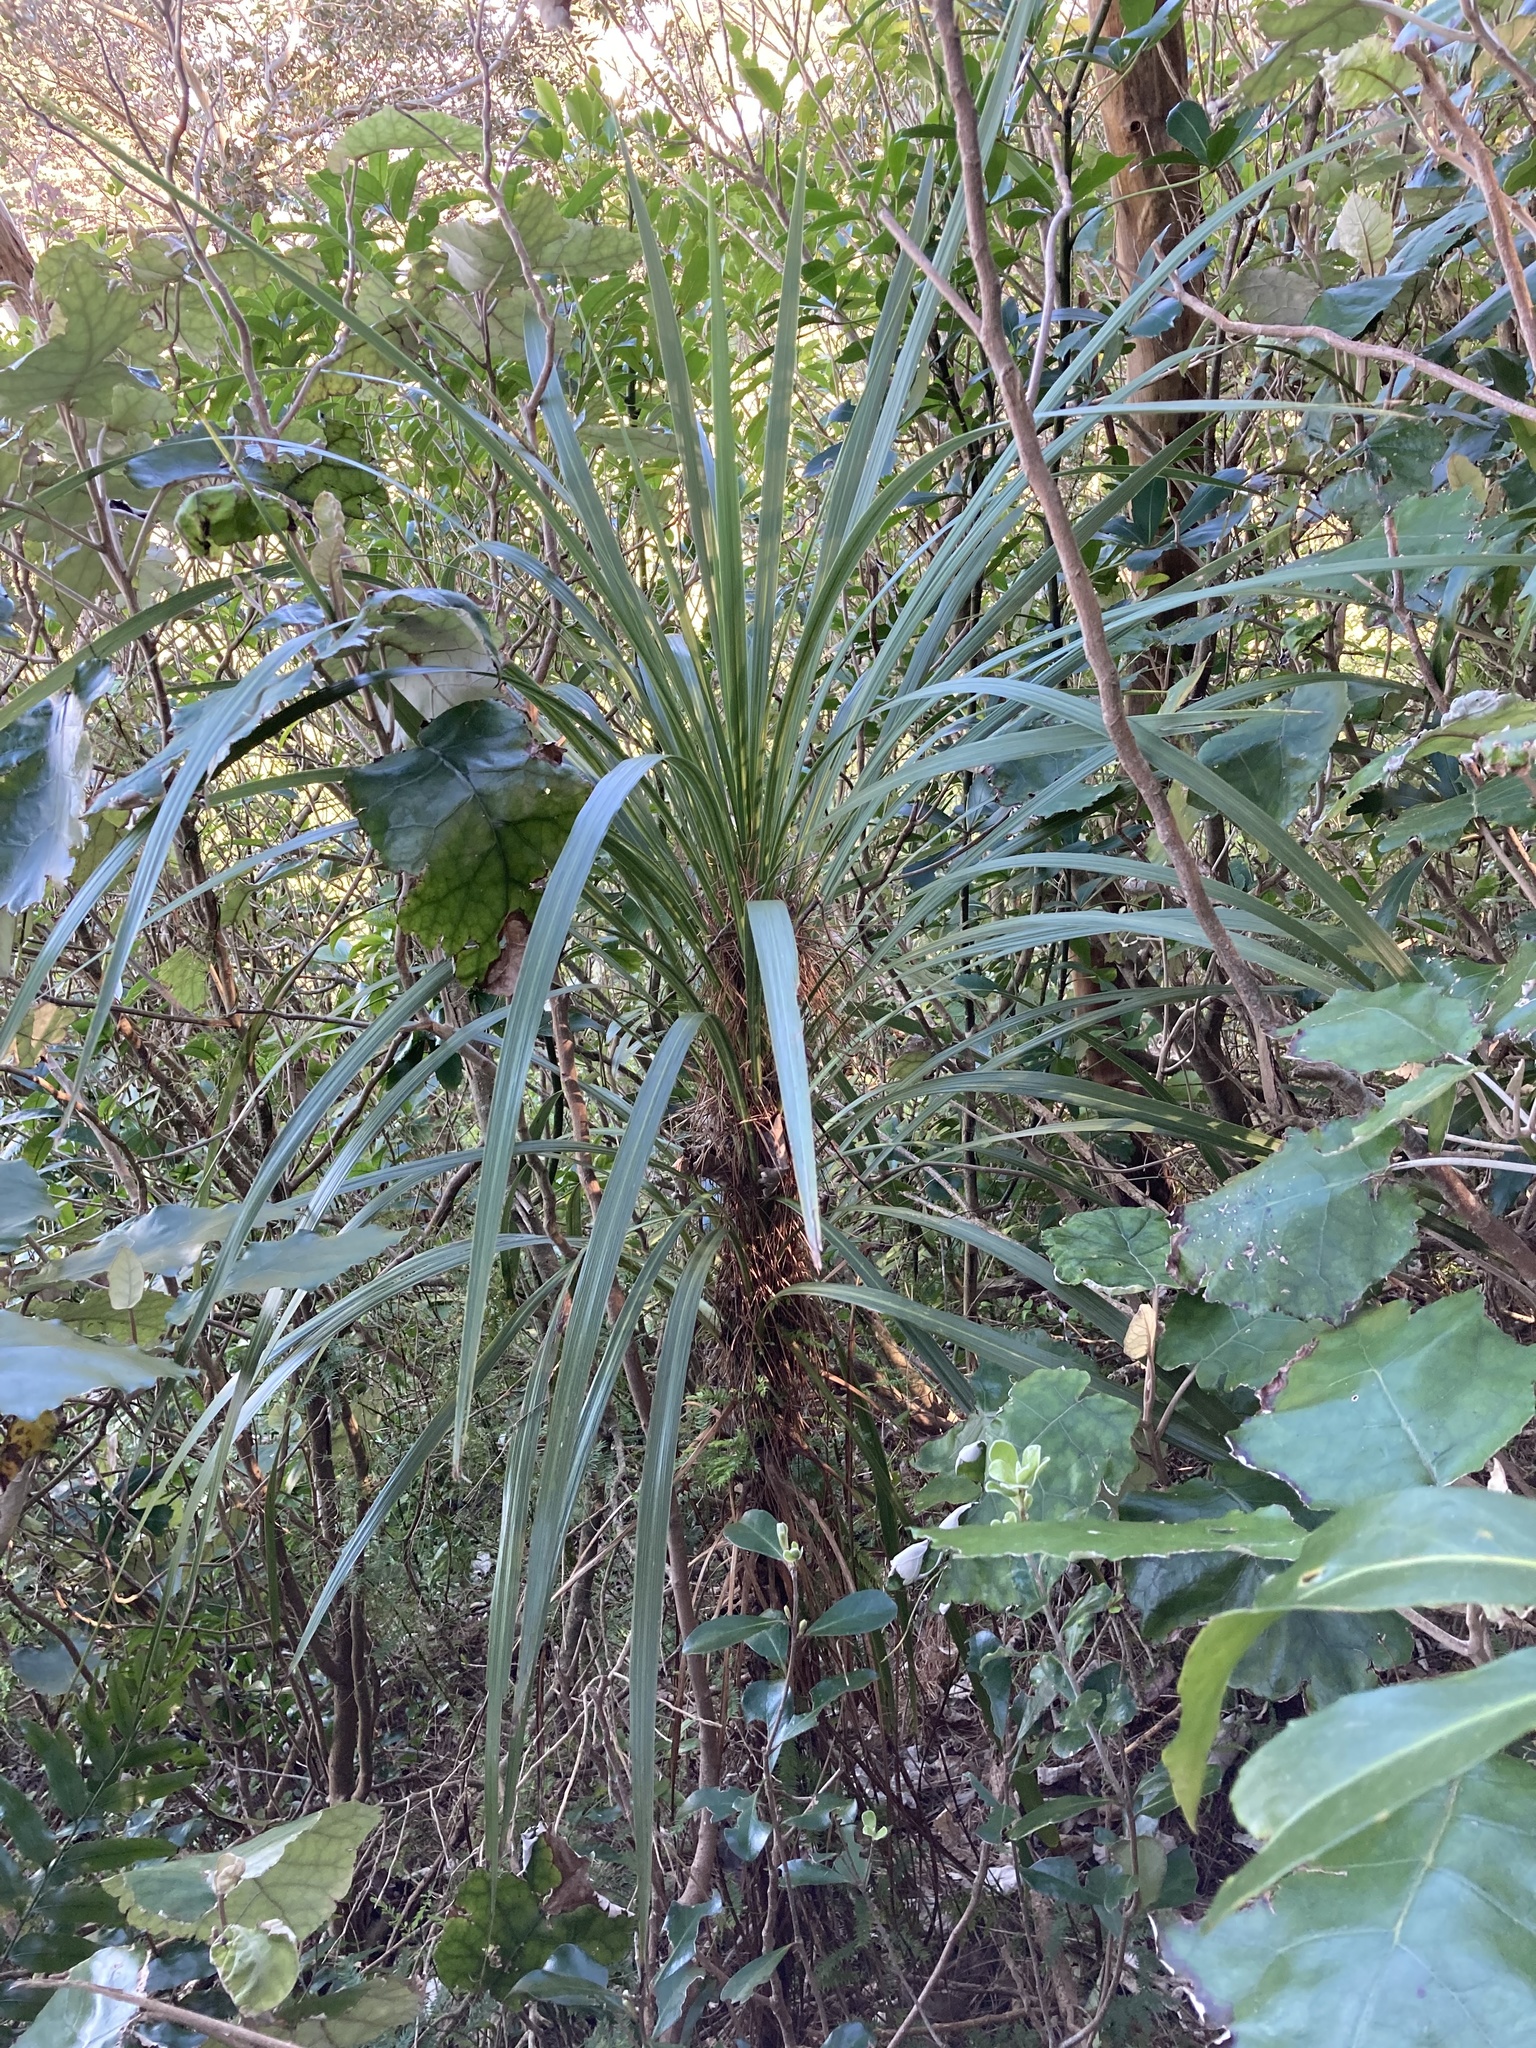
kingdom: Plantae
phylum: Tracheophyta
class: Liliopsida
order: Asparagales
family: Asparagaceae
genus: Cordyline
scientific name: Cordyline australis
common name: Cabbage-palm
